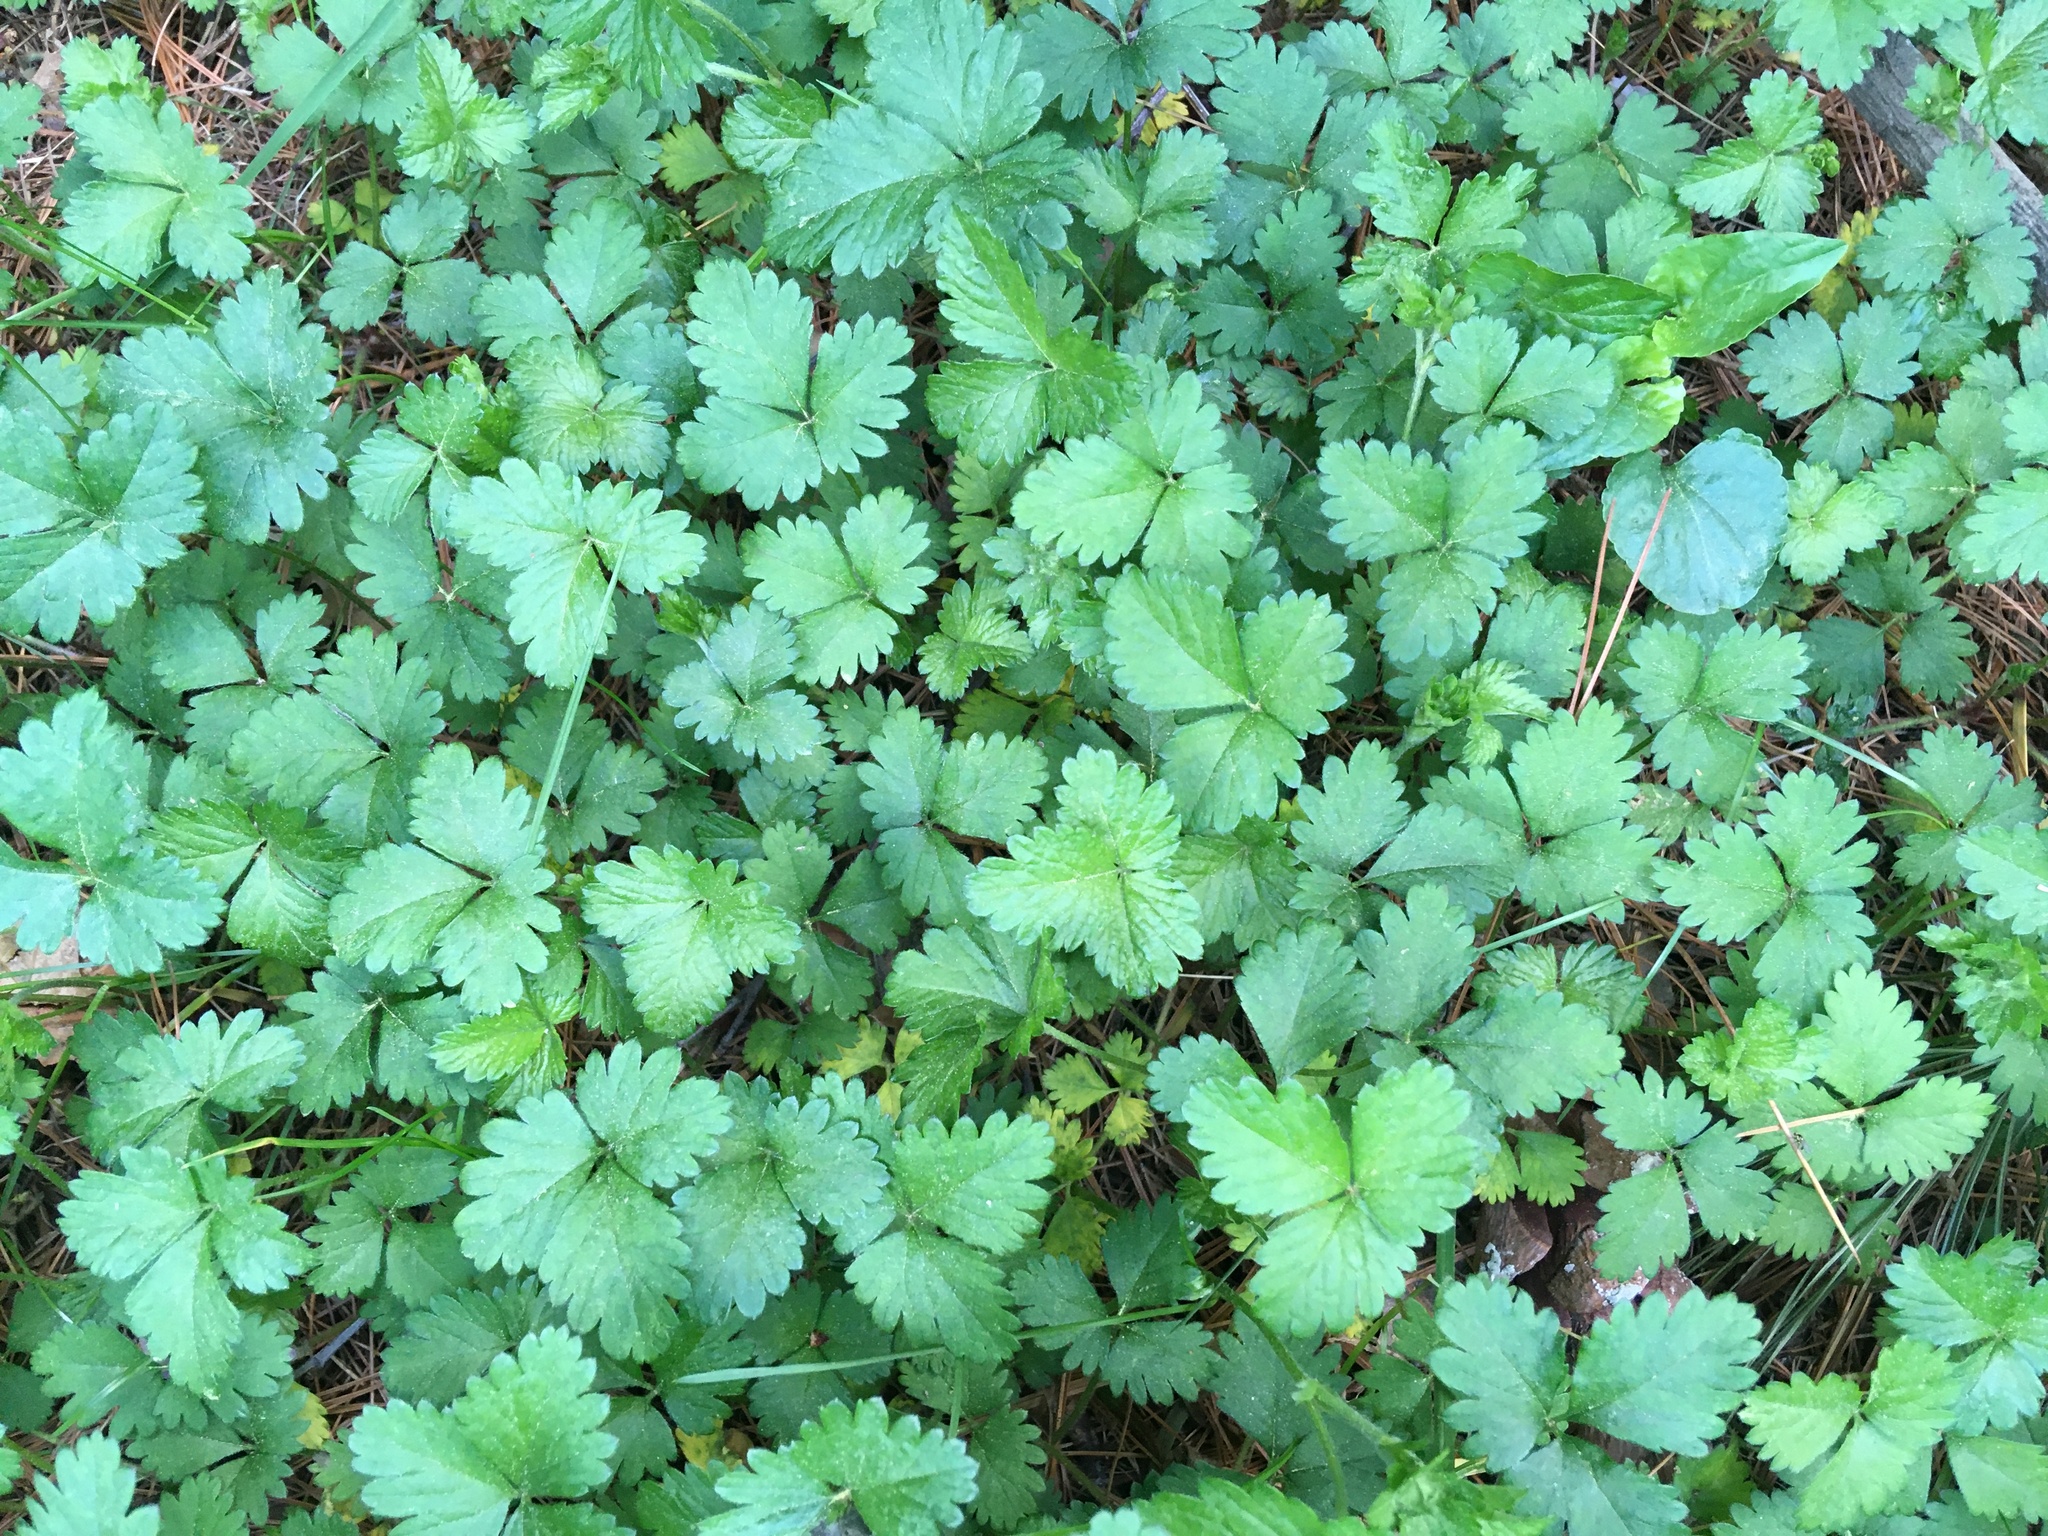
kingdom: Plantae
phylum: Tracheophyta
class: Magnoliopsida
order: Rosales
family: Rosaceae
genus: Potentilla
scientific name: Potentilla indica
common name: Yellow-flowered strawberry
